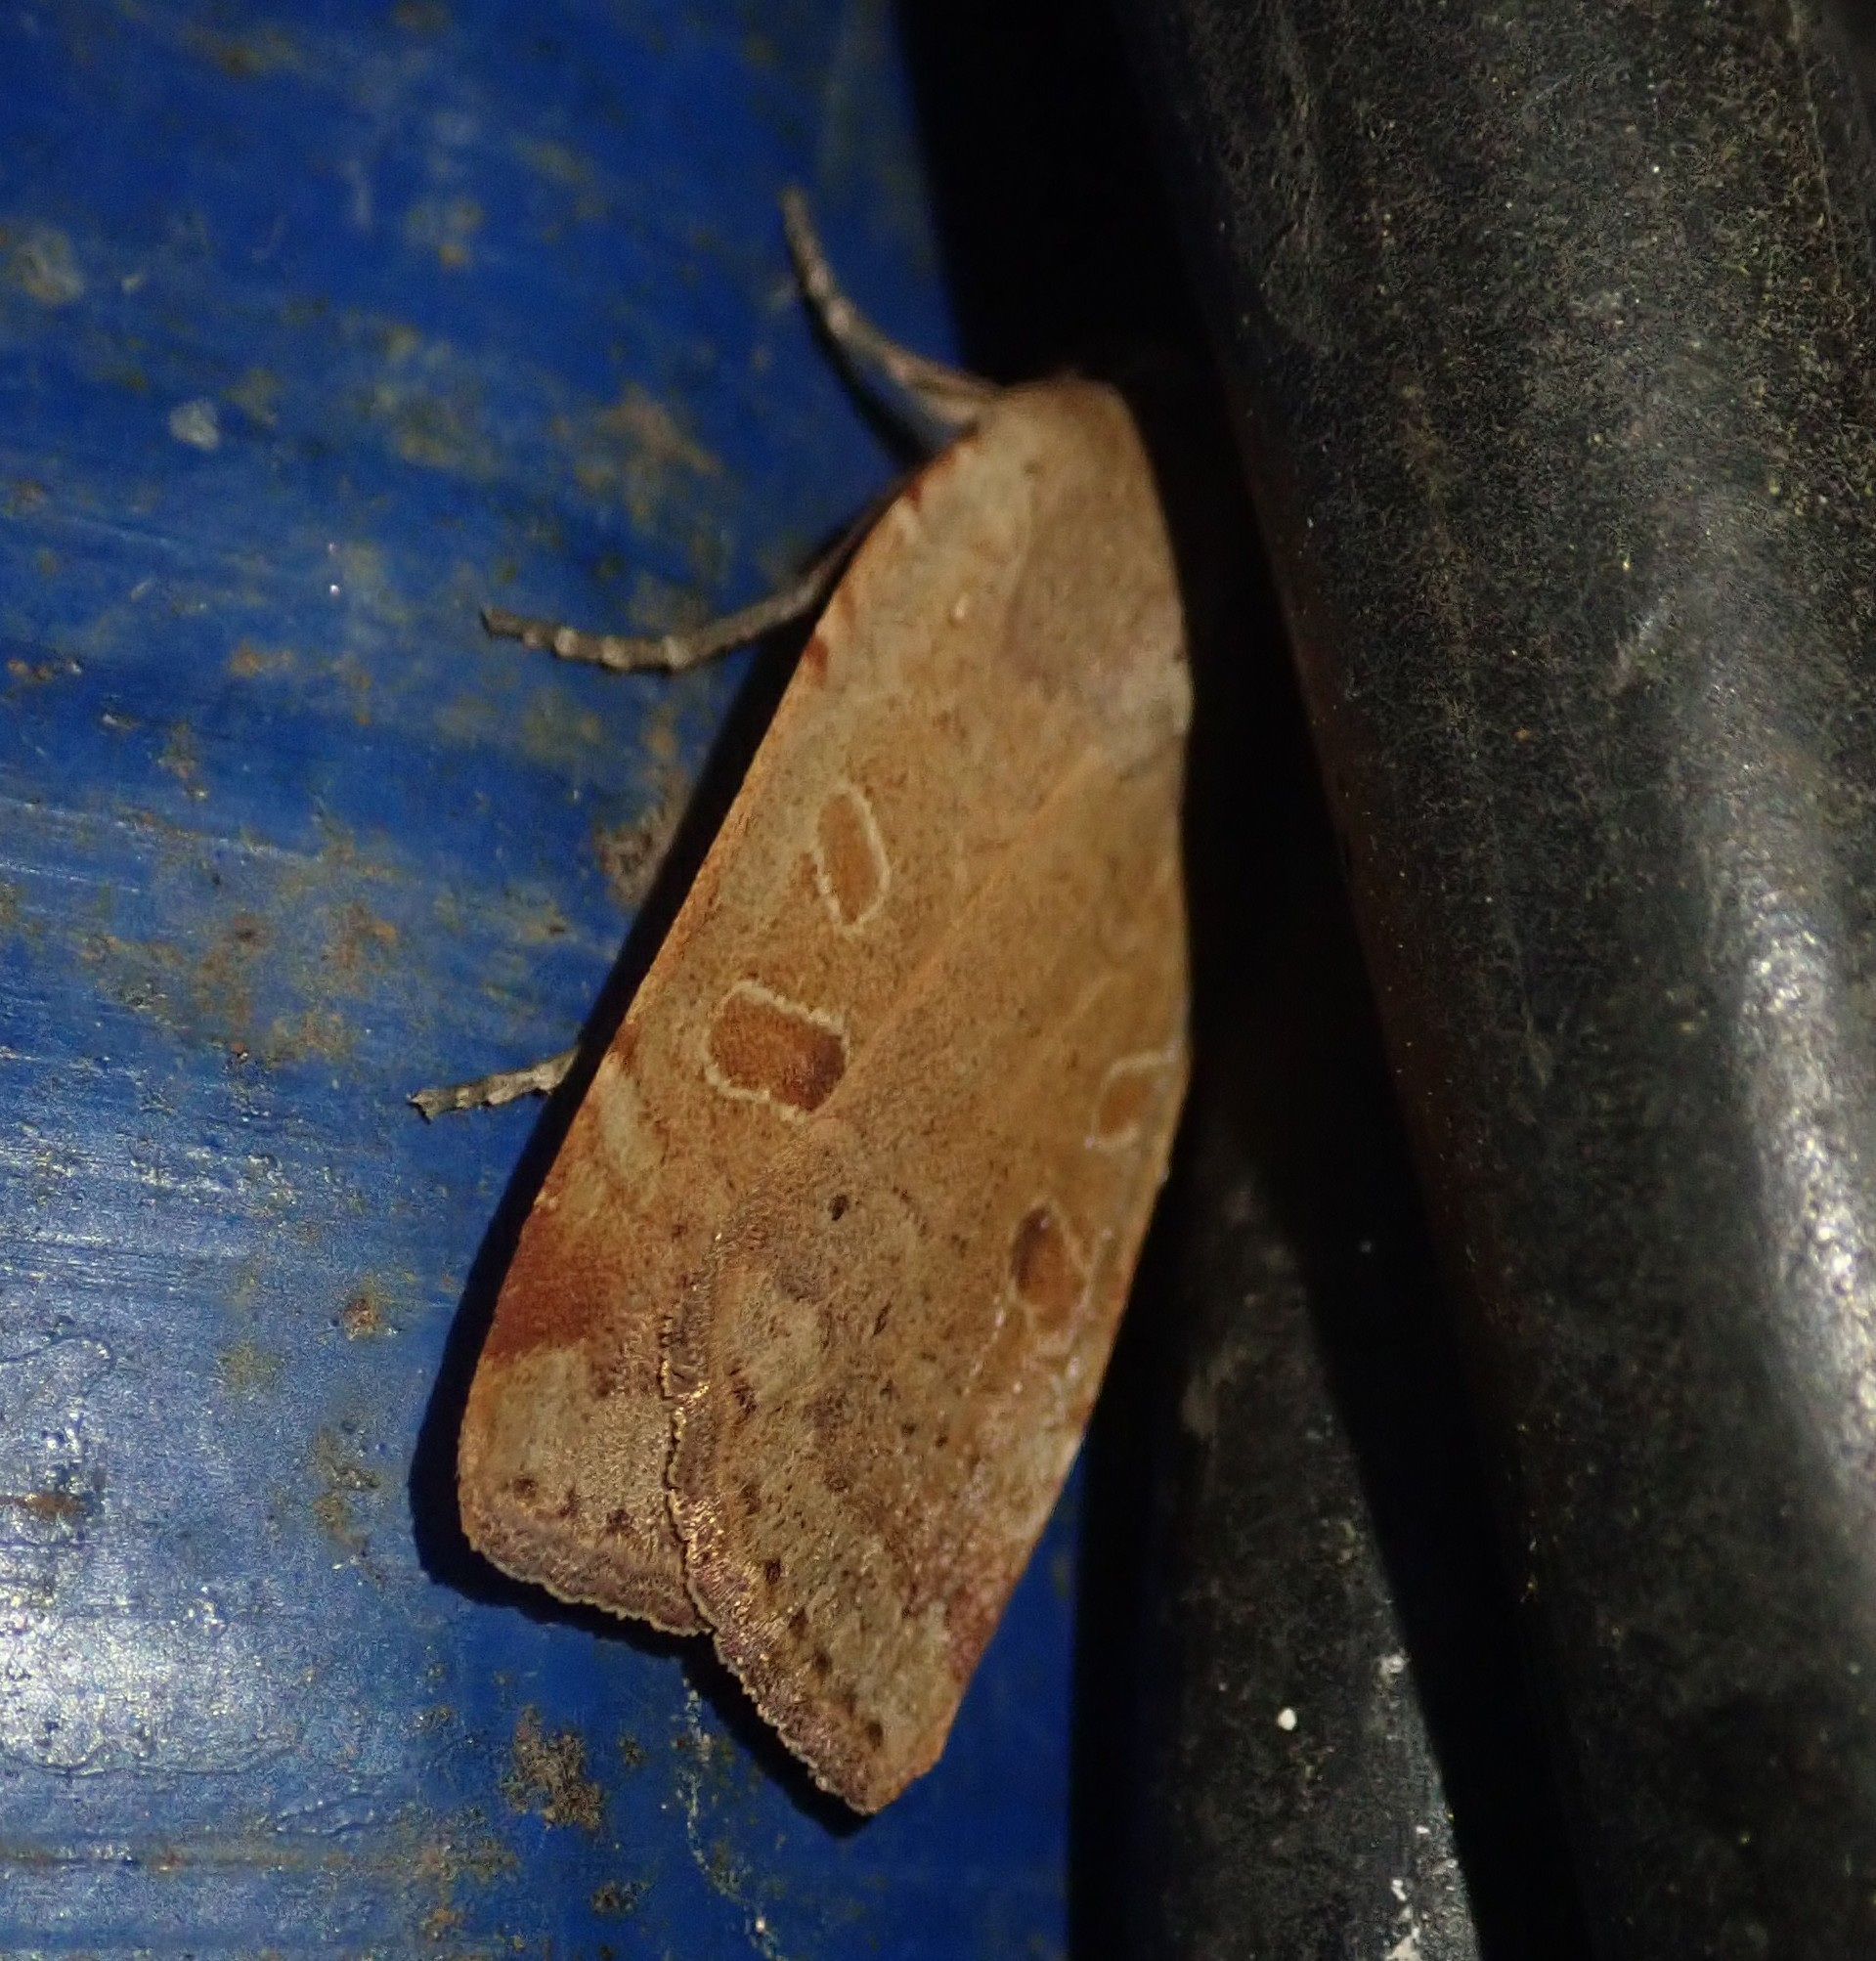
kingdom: Animalia
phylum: Arthropoda
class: Insecta
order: Lepidoptera
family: Noctuidae
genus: Noctua
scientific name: Noctua comes
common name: Lesser yellow underwing
